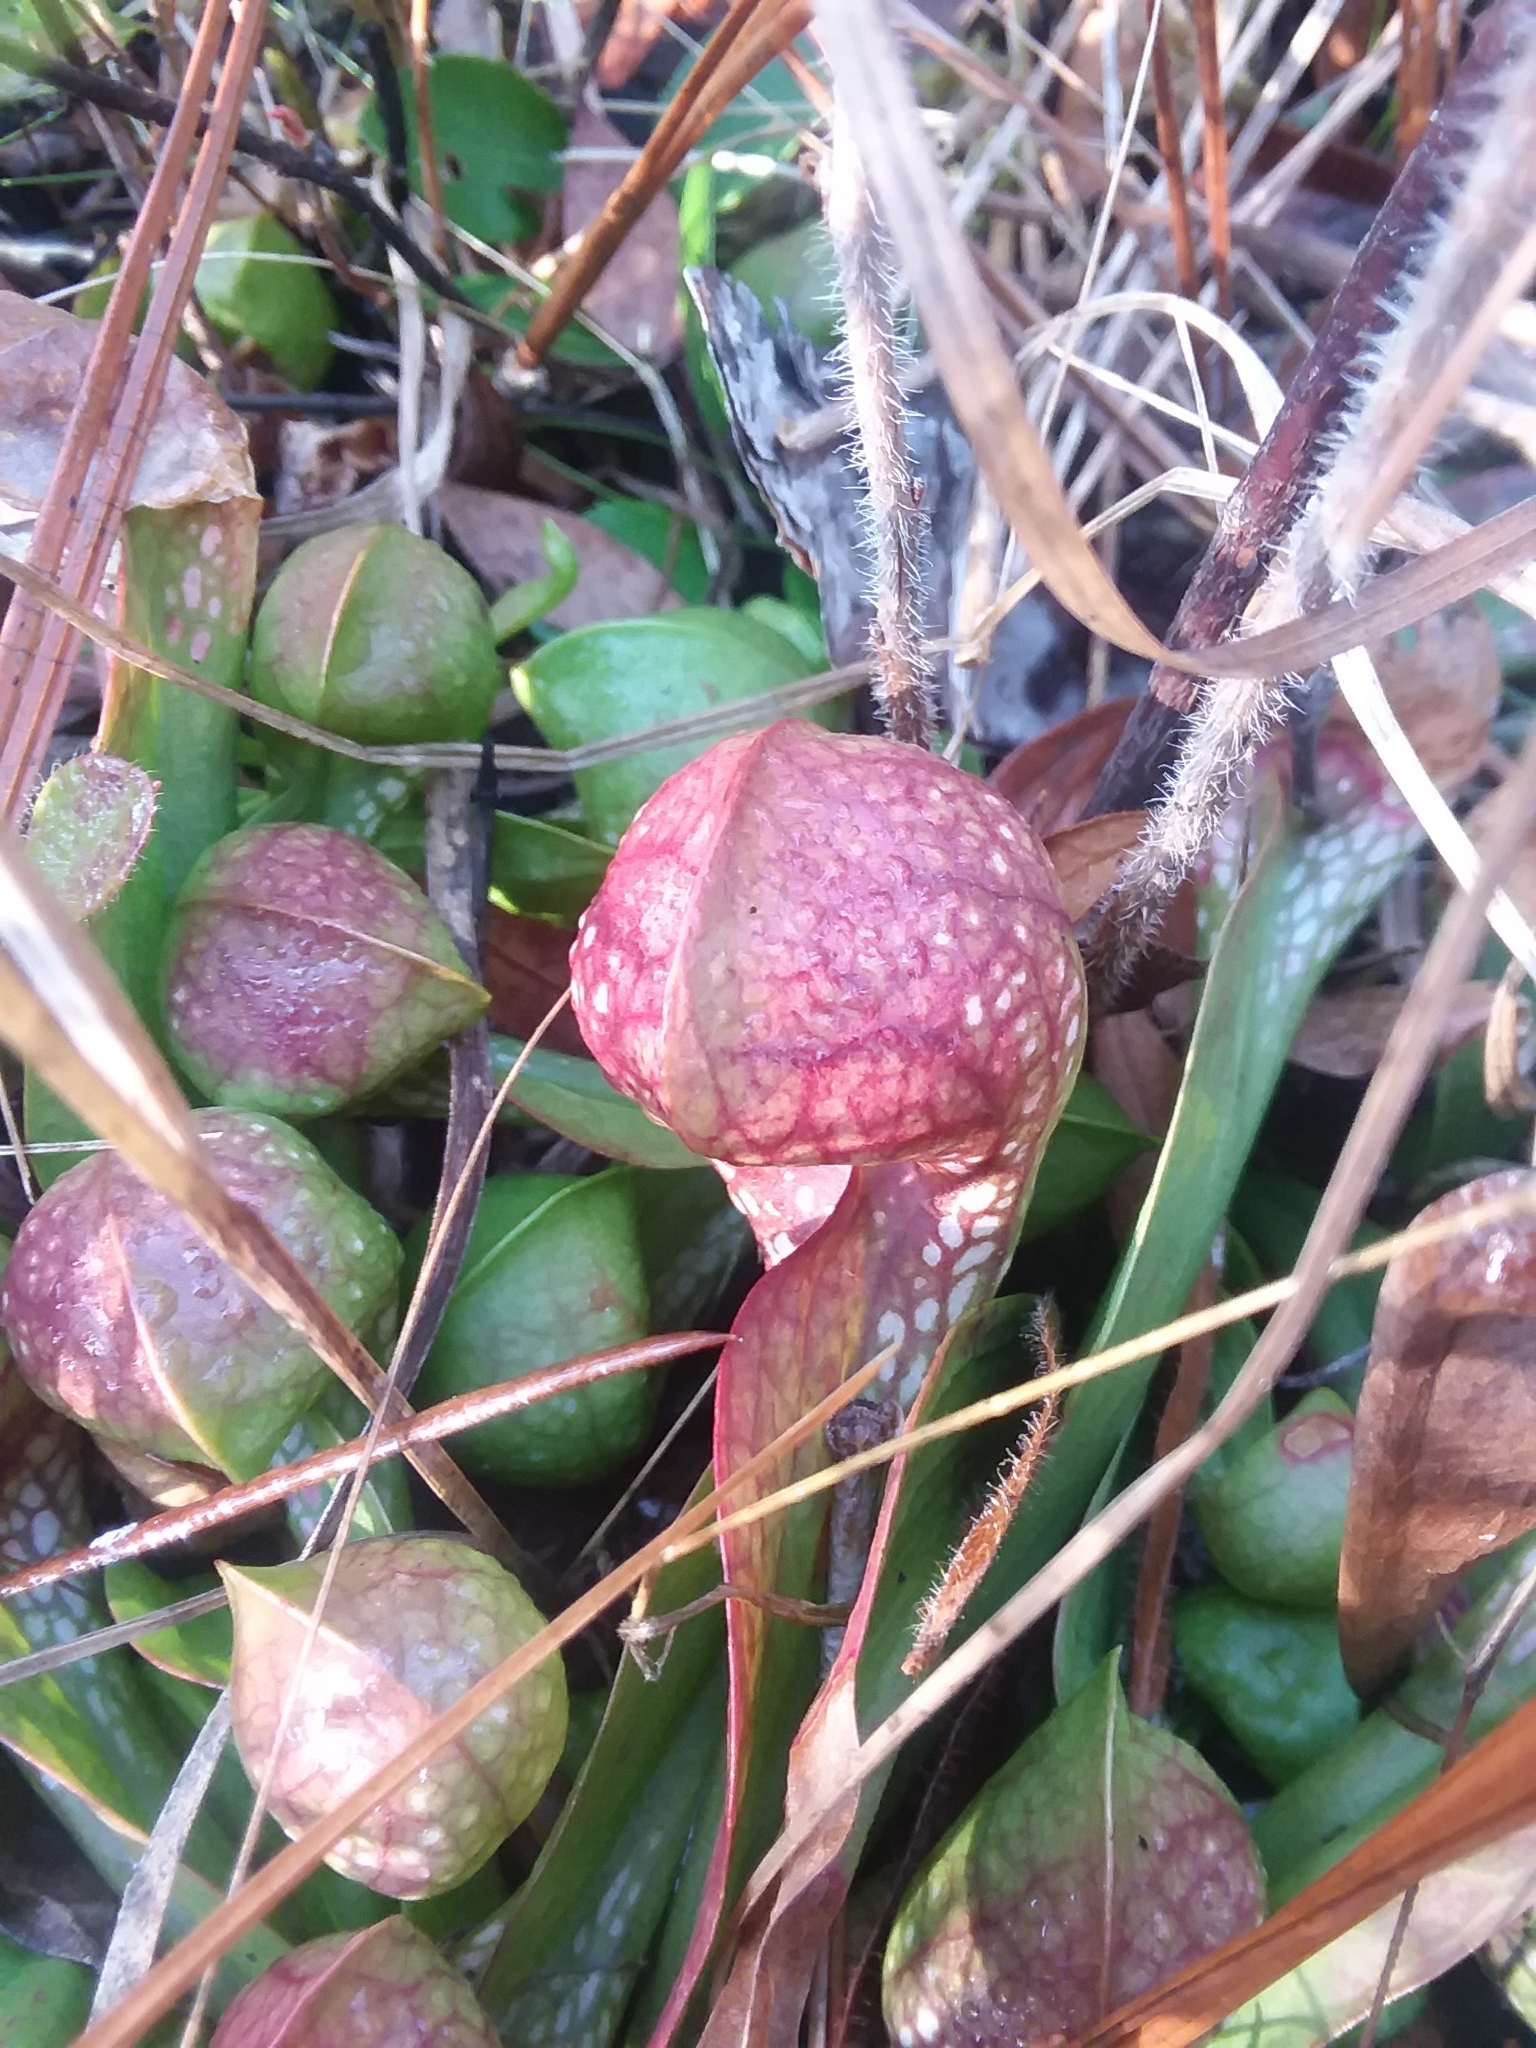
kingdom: Plantae
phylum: Tracheophyta
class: Magnoliopsida
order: Ericales
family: Sarraceniaceae
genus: Sarracenia
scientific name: Sarracenia psittacina
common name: Parrot pitcherplant
